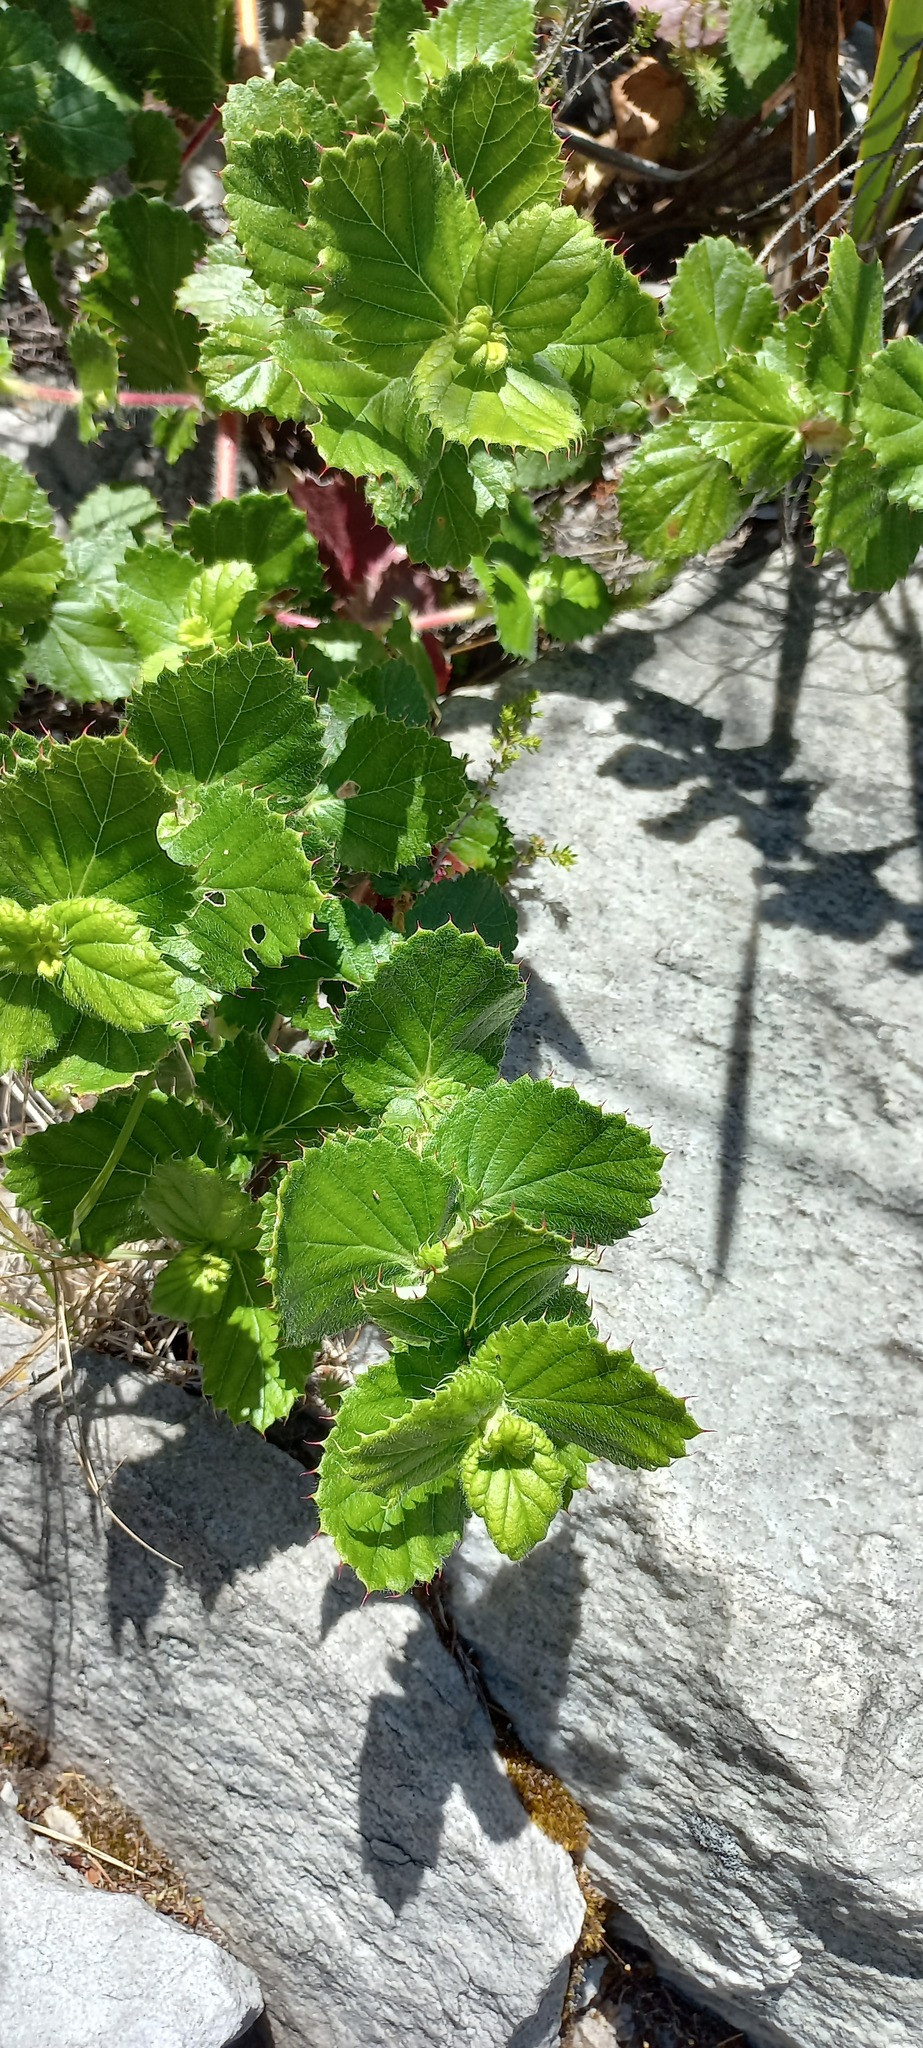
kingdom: Plantae
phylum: Tracheophyta
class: Magnoliopsida
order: Rosales
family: Rosaceae
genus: Cliffortia
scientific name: Cliffortia hirsuta
